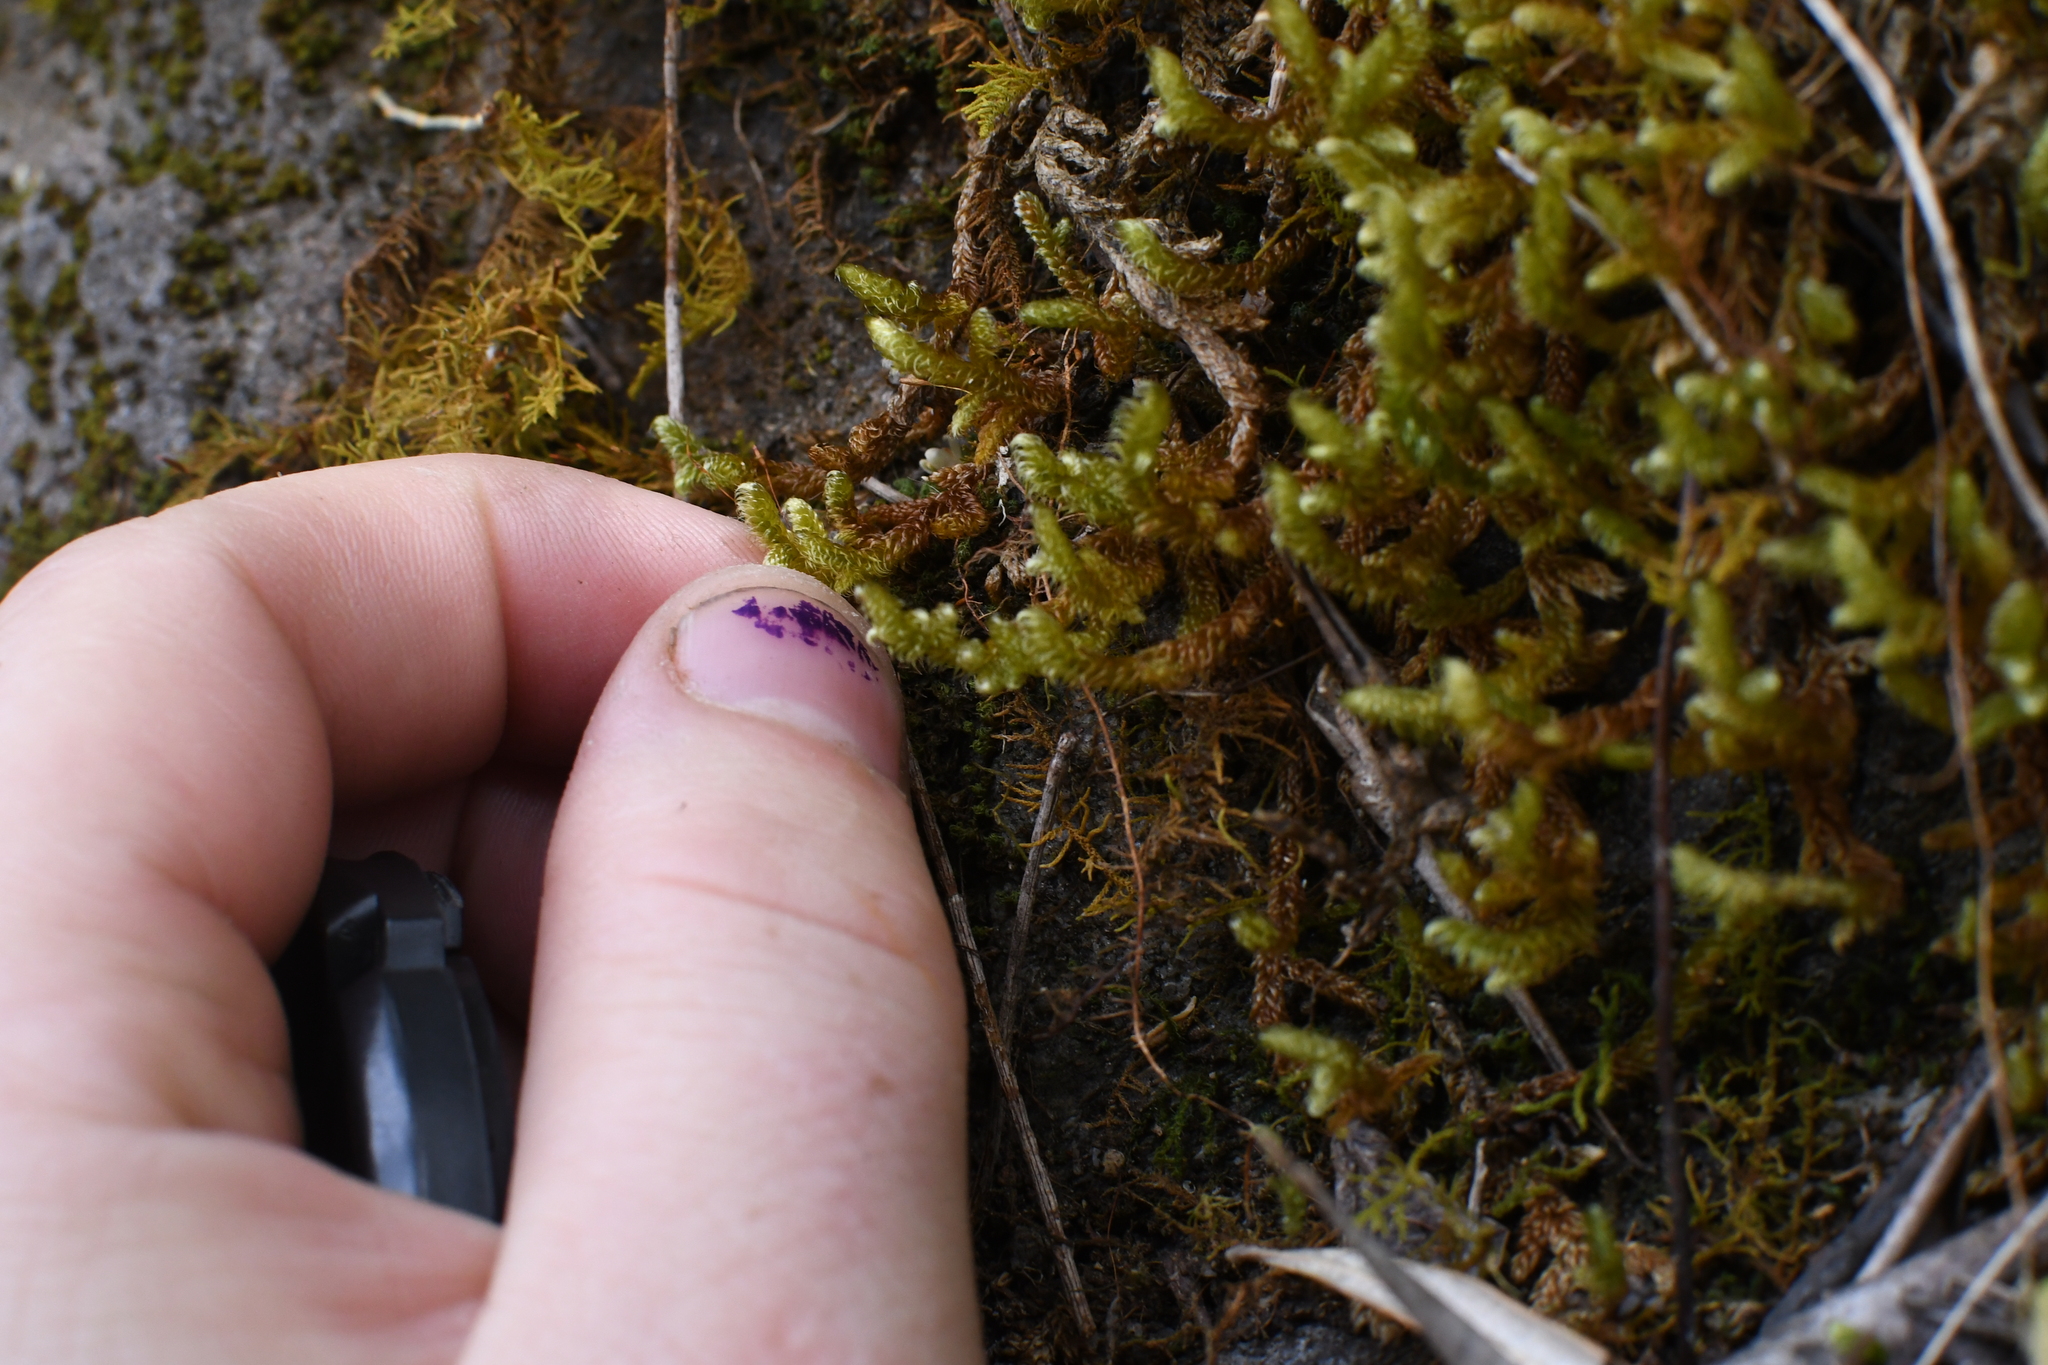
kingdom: Plantae
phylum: Bryophyta
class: Bryopsida
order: Hypnales
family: Hypnaceae
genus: Hypnum
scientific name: Hypnum cupressiforme
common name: Cypress-leaved plait-moss
